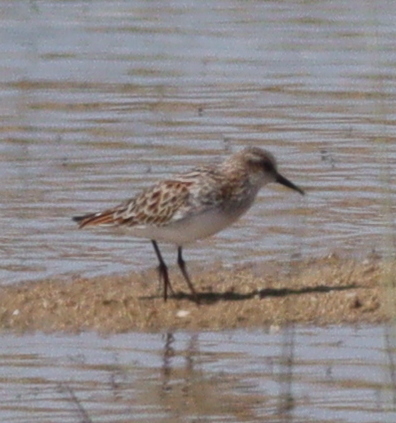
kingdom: Animalia
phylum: Chordata
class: Aves
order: Charadriiformes
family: Scolopacidae
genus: Calidris
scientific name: Calidris minuta
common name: Little stint
